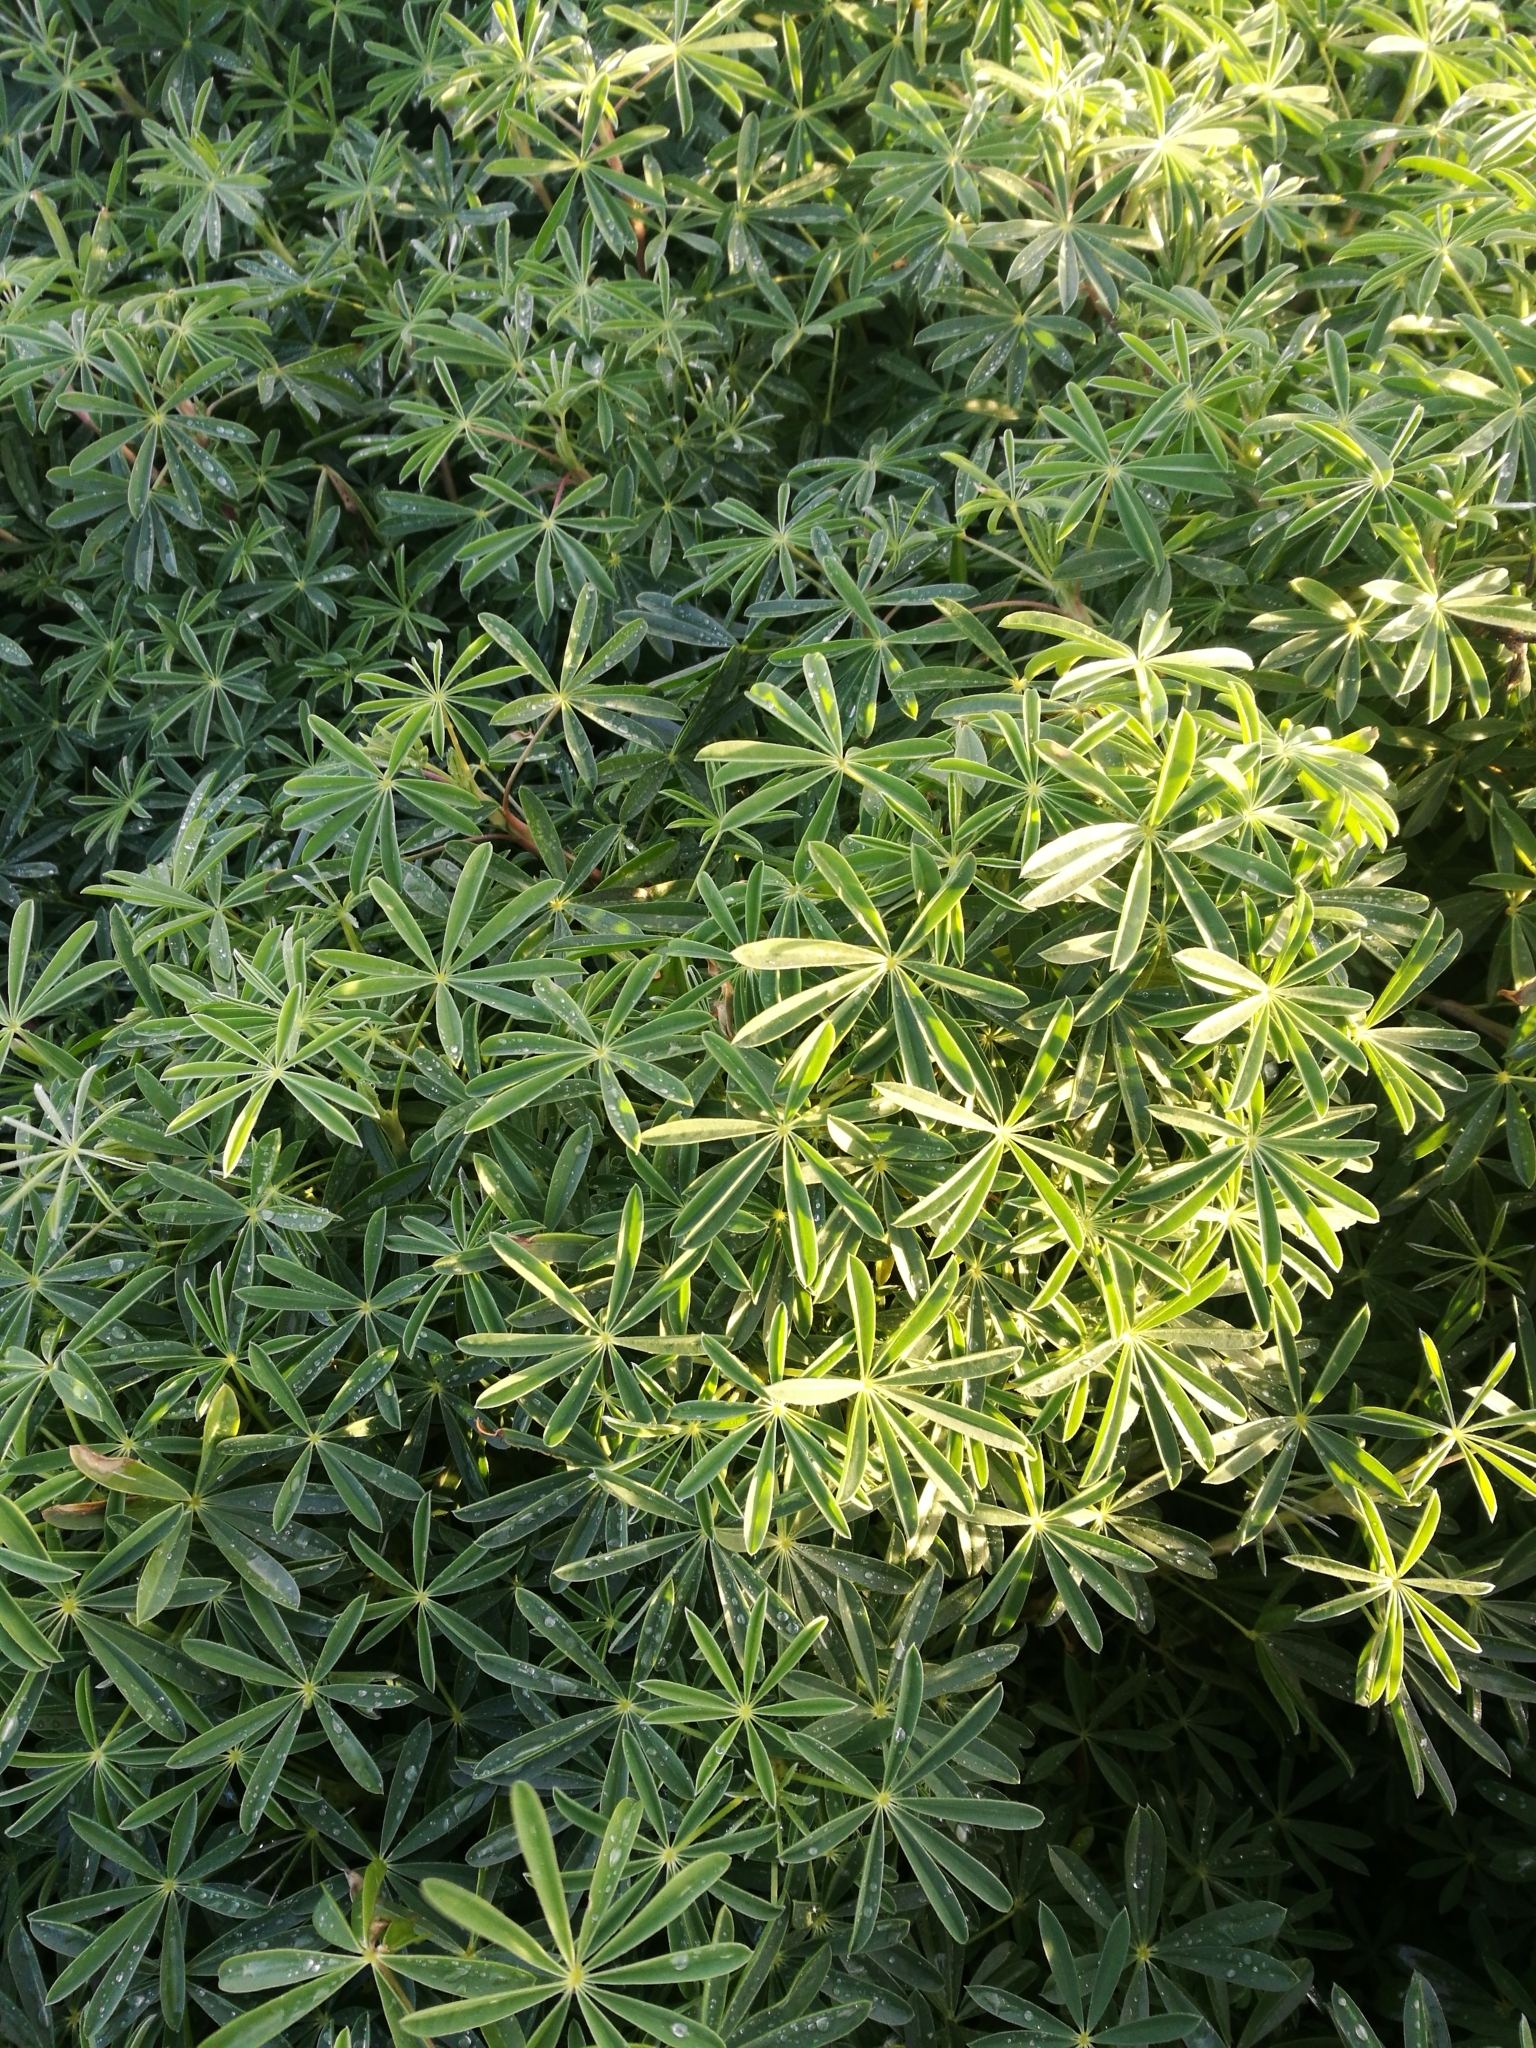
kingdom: Plantae
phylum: Tracheophyta
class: Magnoliopsida
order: Fabales
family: Fabaceae
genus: Lupinus
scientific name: Lupinus arboreus
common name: Yellow bush lupine
